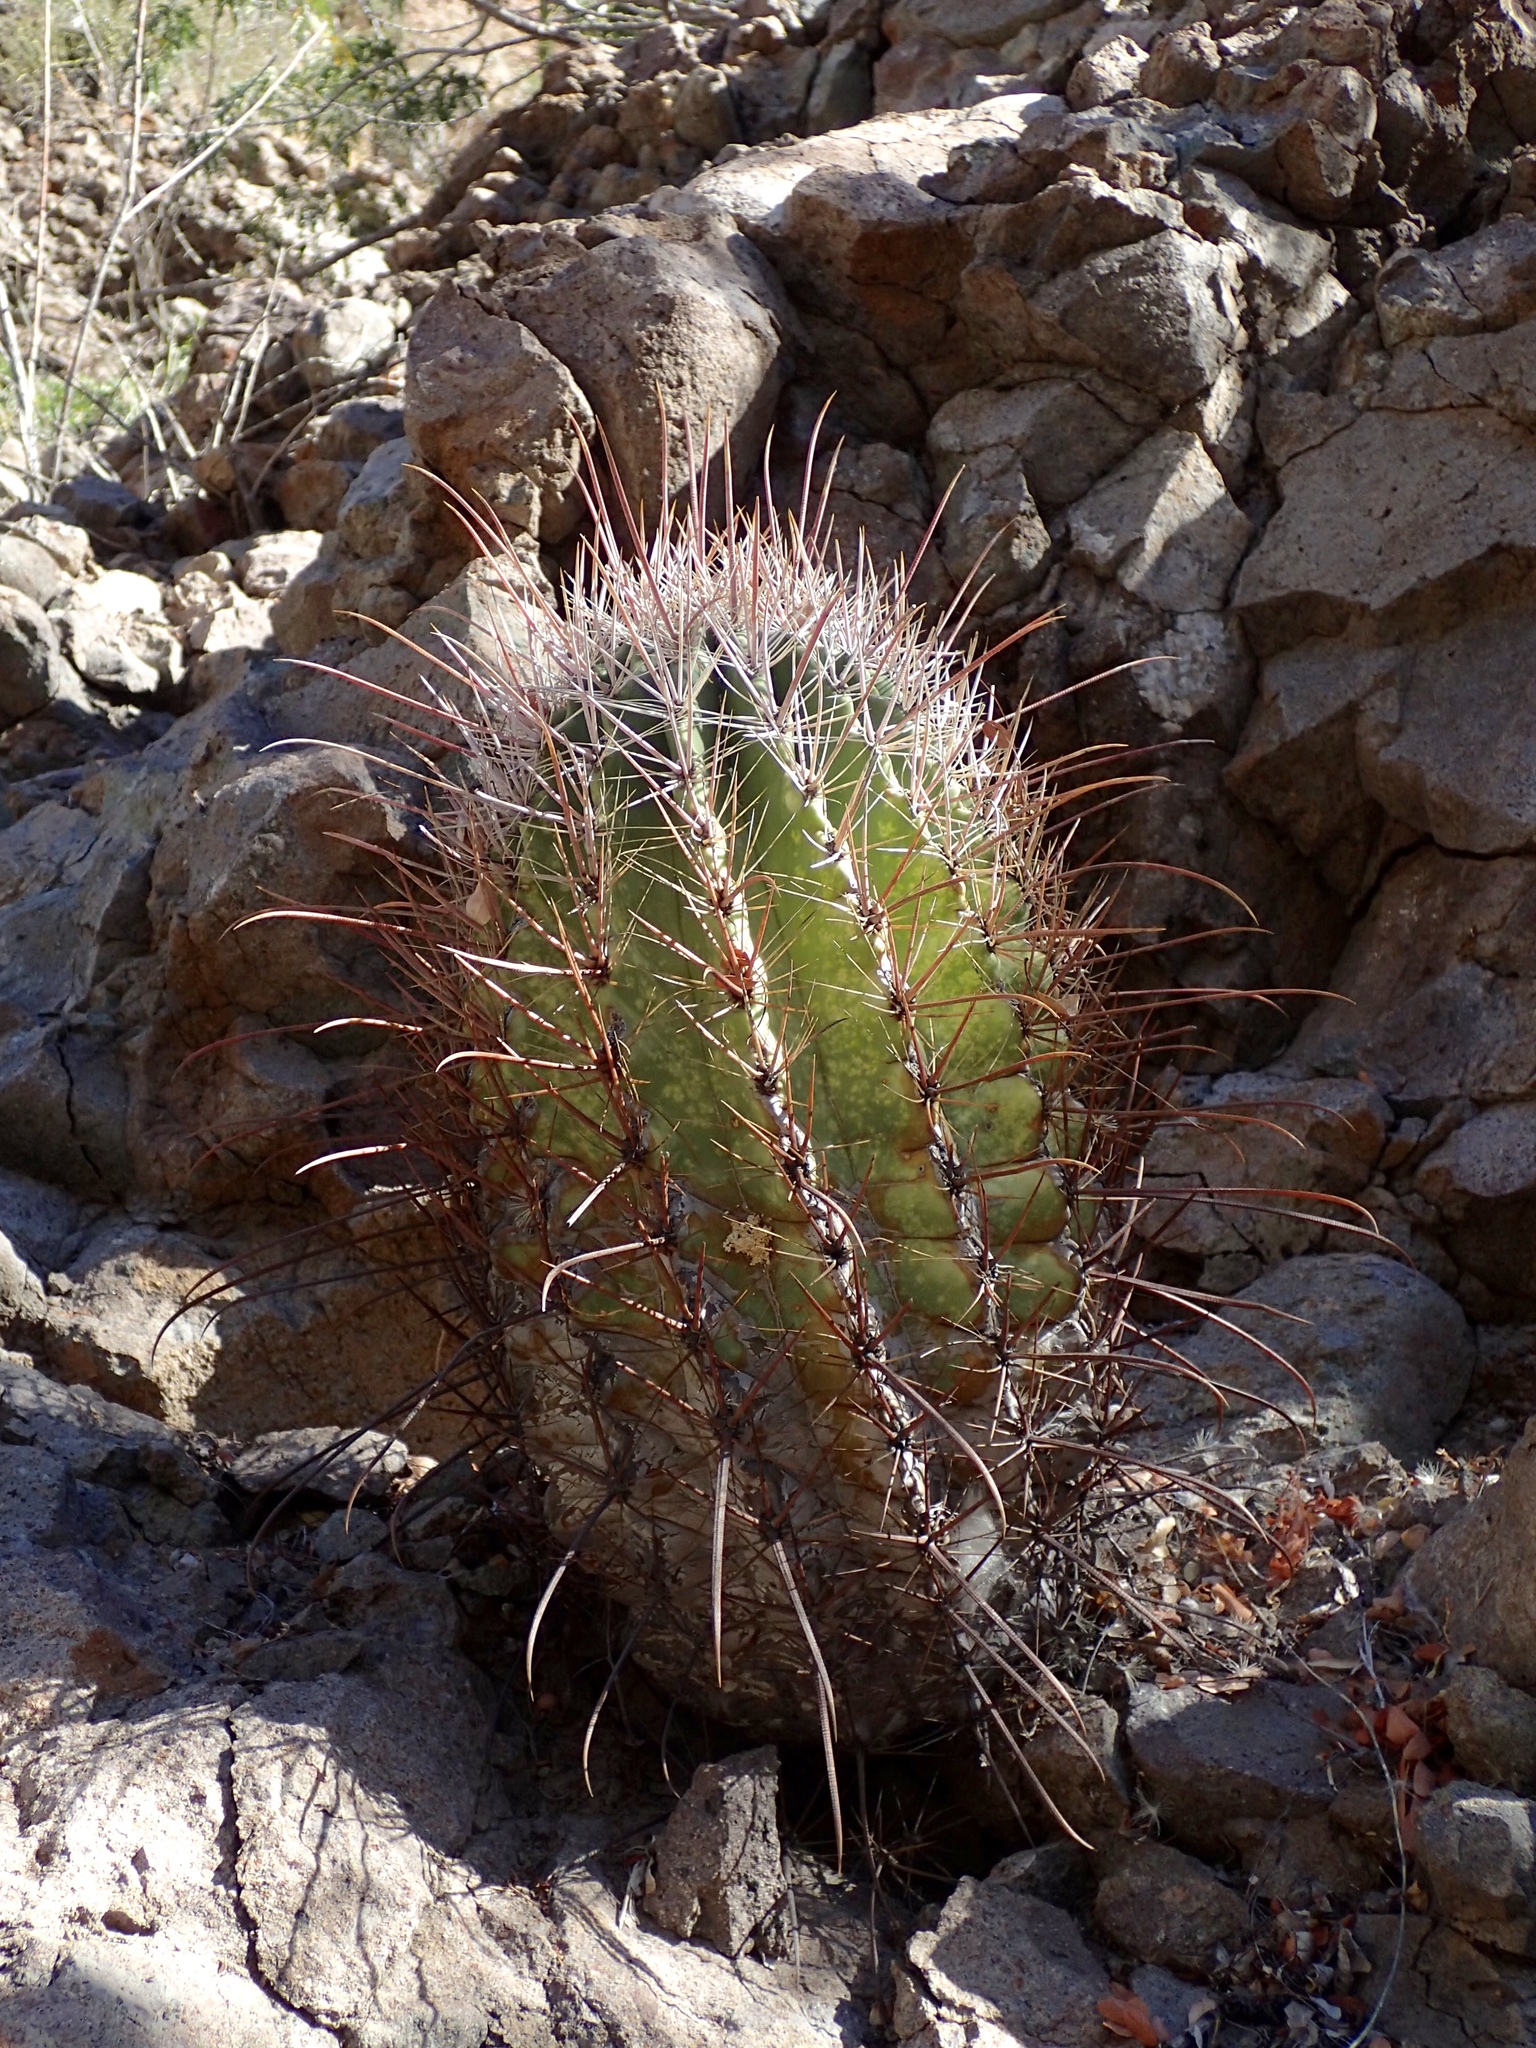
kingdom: Plantae
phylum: Tracheophyta
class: Magnoliopsida
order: Caryophyllales
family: Cactaceae
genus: Ferocactus
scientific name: Ferocactus emoryi
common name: Emory's barrel cactus
